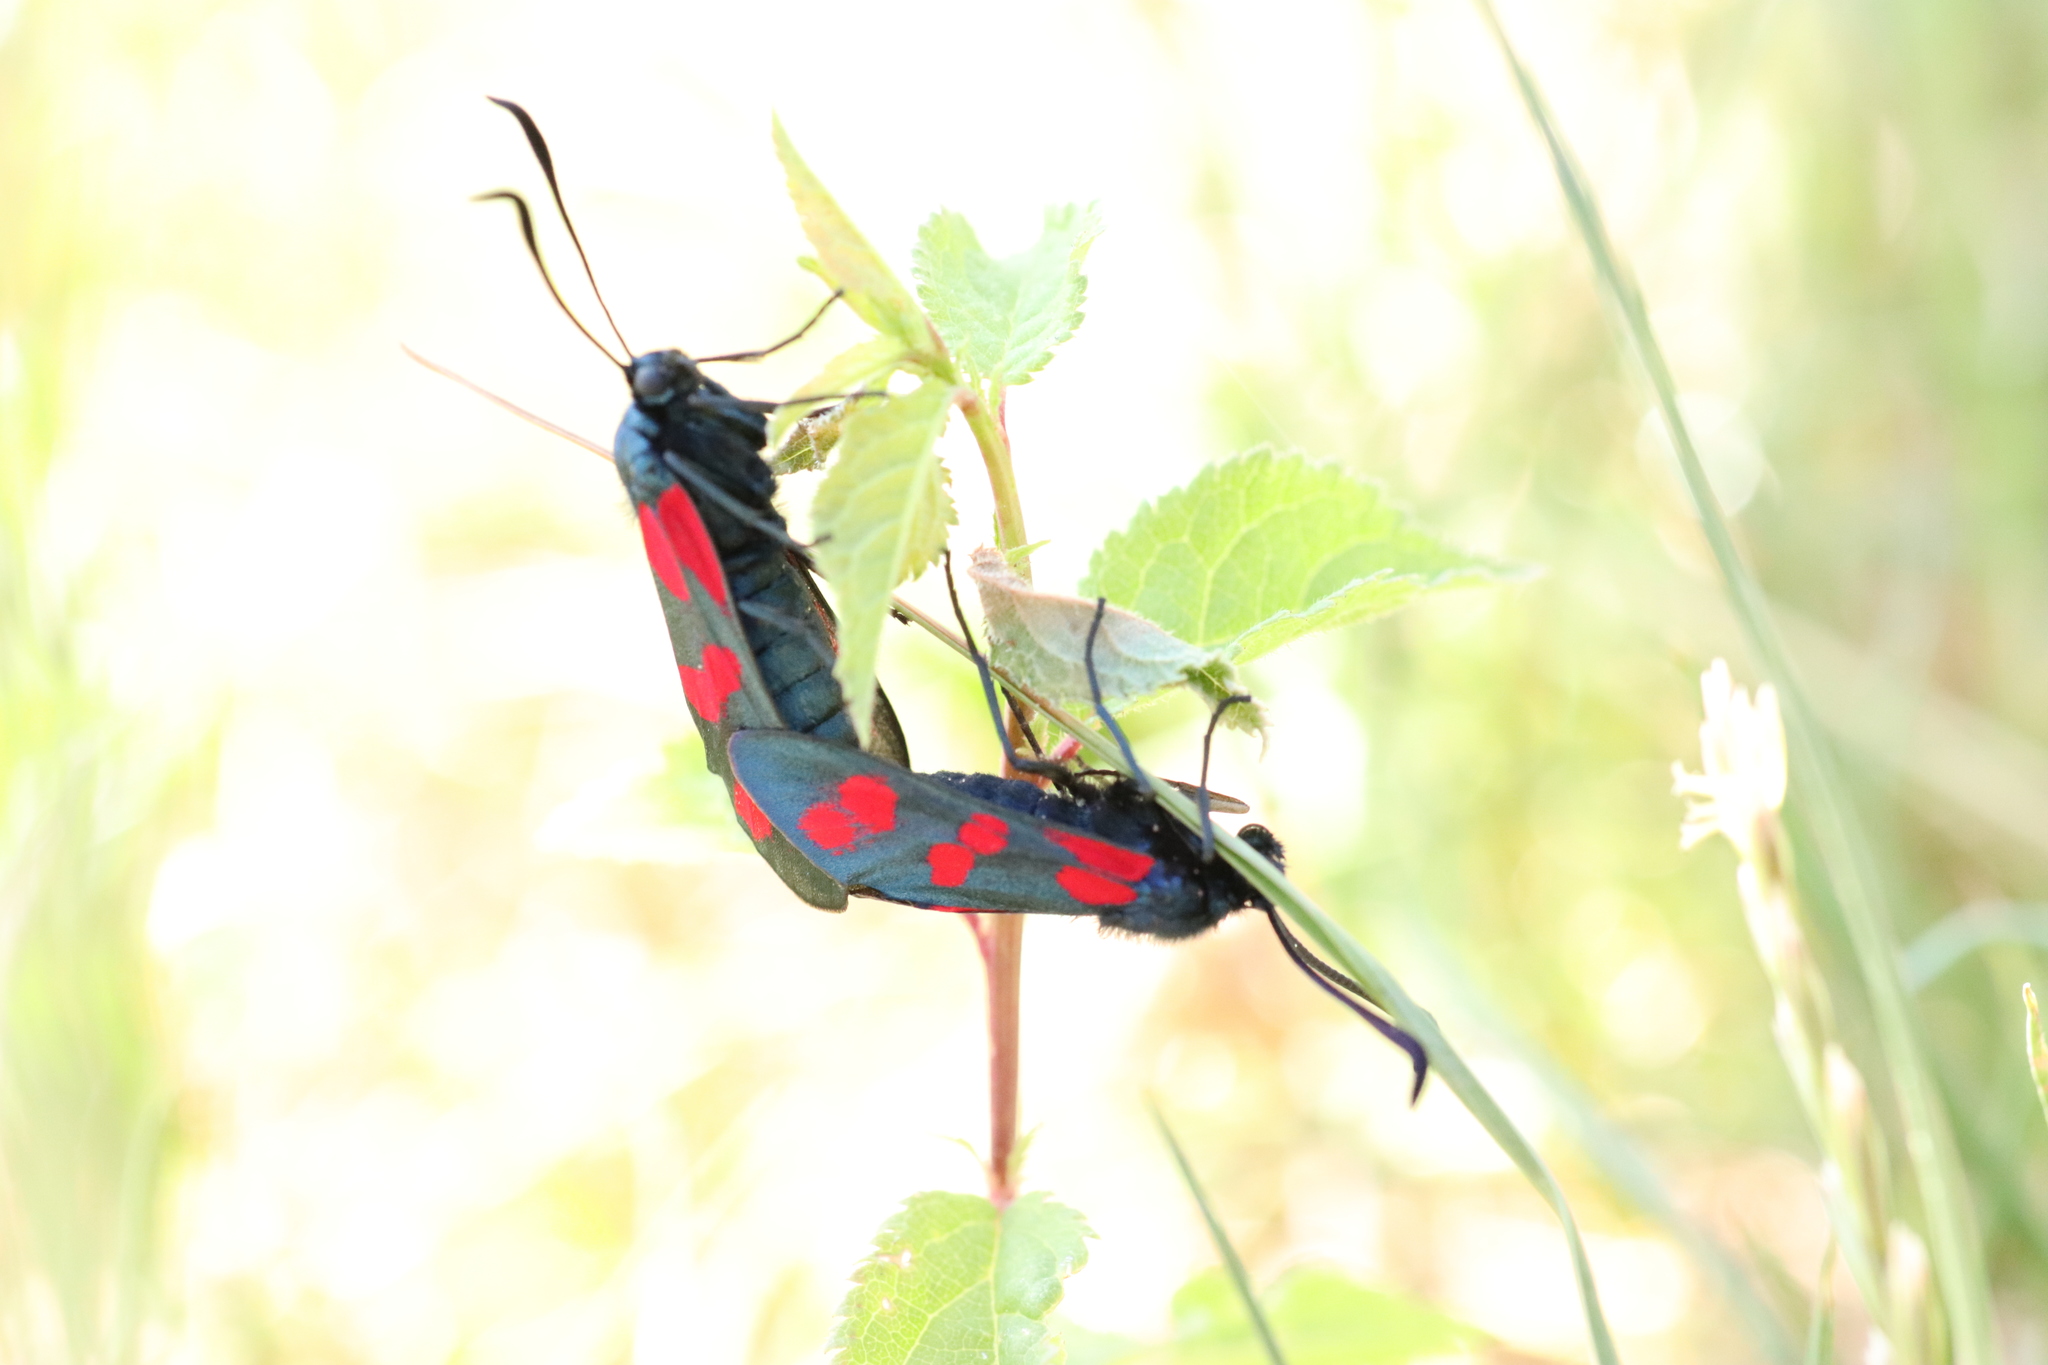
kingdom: Animalia
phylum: Arthropoda
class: Insecta
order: Lepidoptera
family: Zygaenidae
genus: Zygaena
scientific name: Zygaena filipendulae
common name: Six-spot burnet
